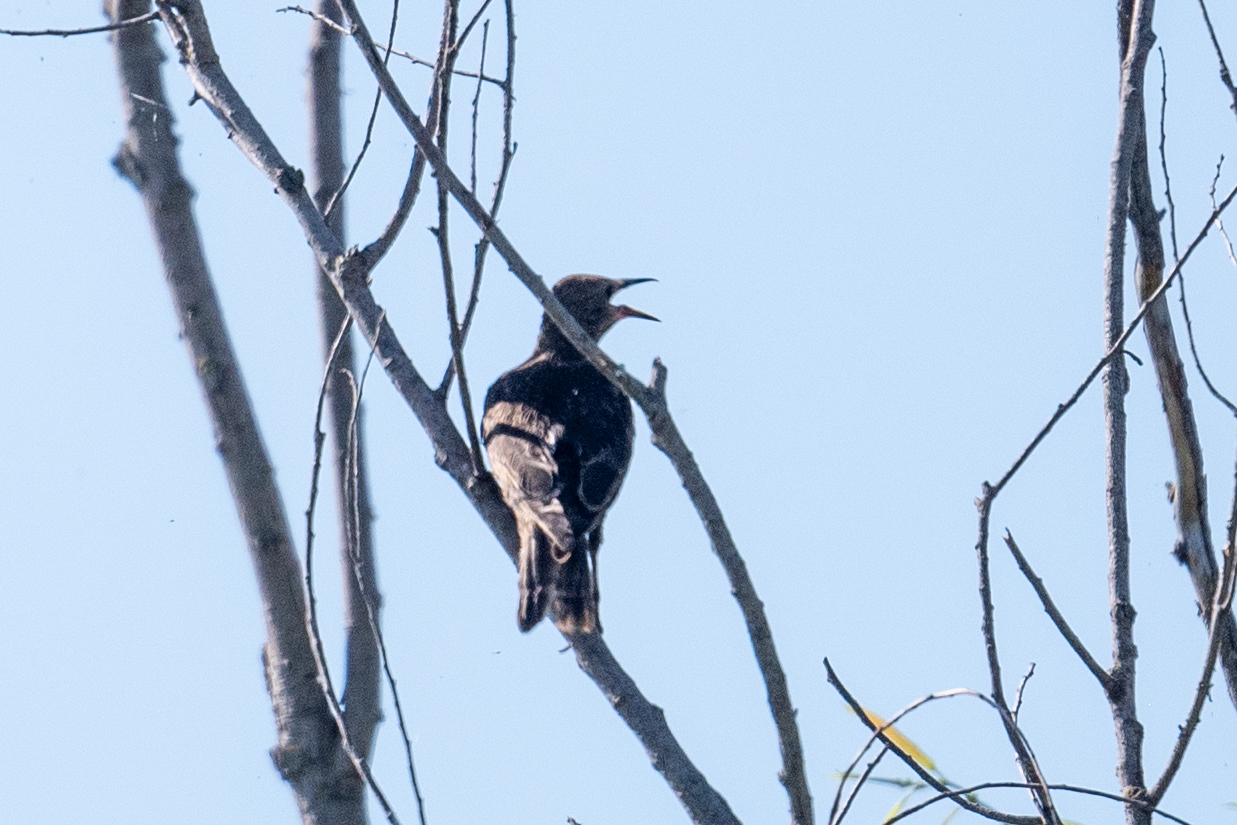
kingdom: Animalia
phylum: Chordata
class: Aves
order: Passeriformes
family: Sturnidae
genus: Sturnus
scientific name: Sturnus vulgaris
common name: Common starling
